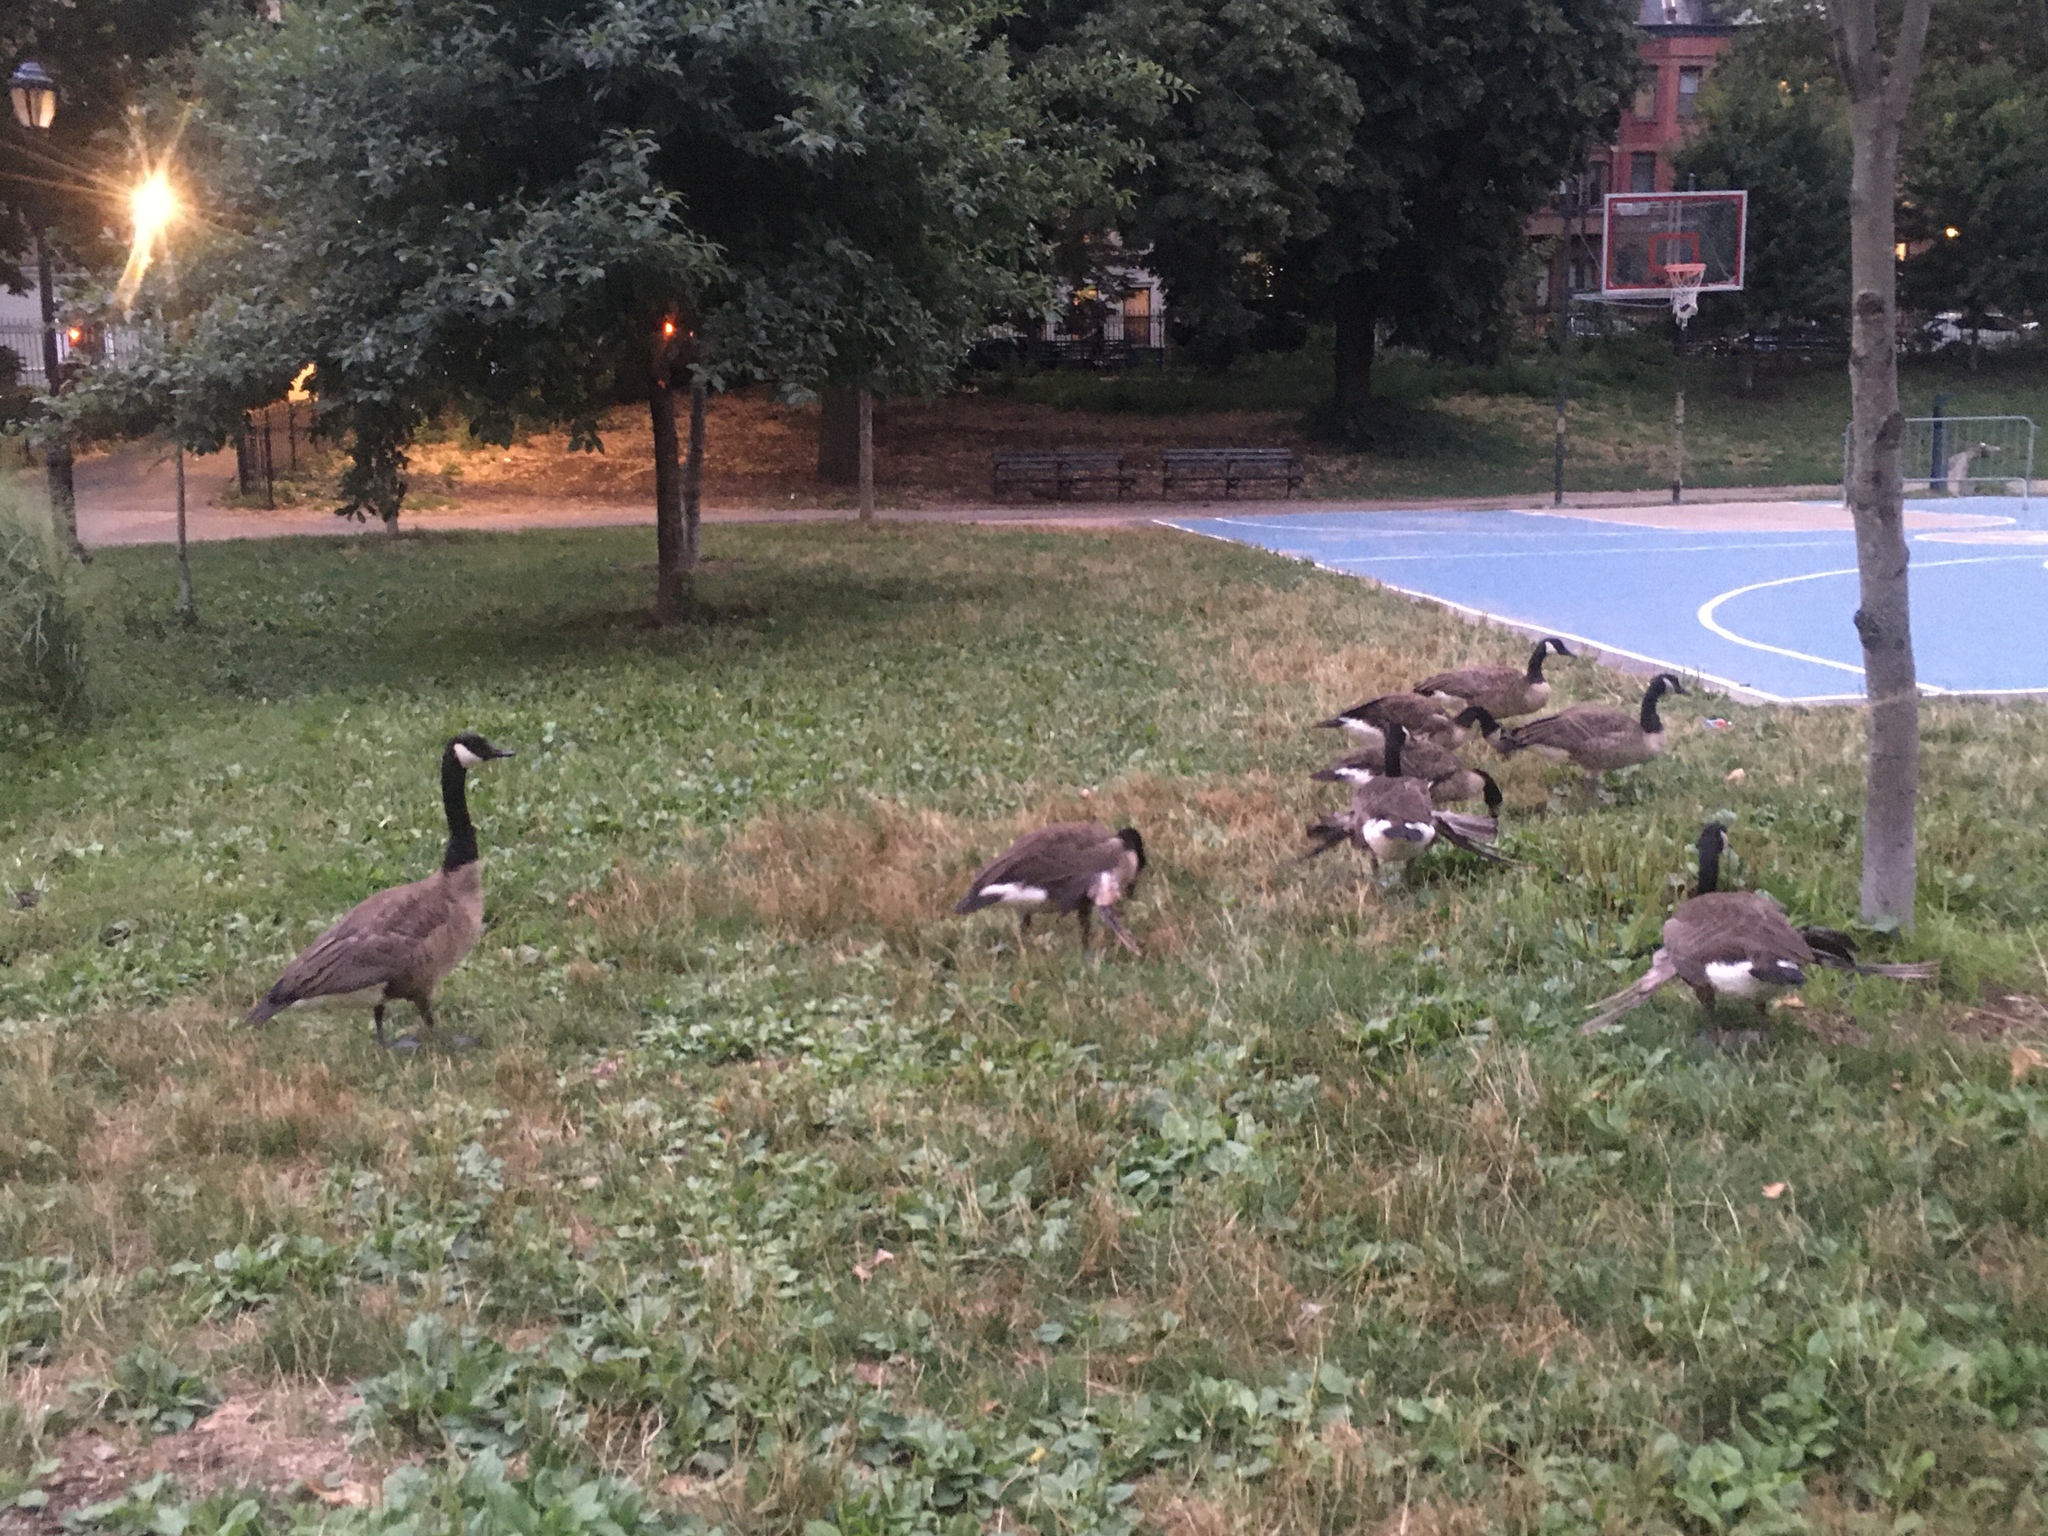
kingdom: Animalia
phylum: Chordata
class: Aves
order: Anseriformes
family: Anatidae
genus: Branta
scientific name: Branta canadensis
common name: Canada goose
